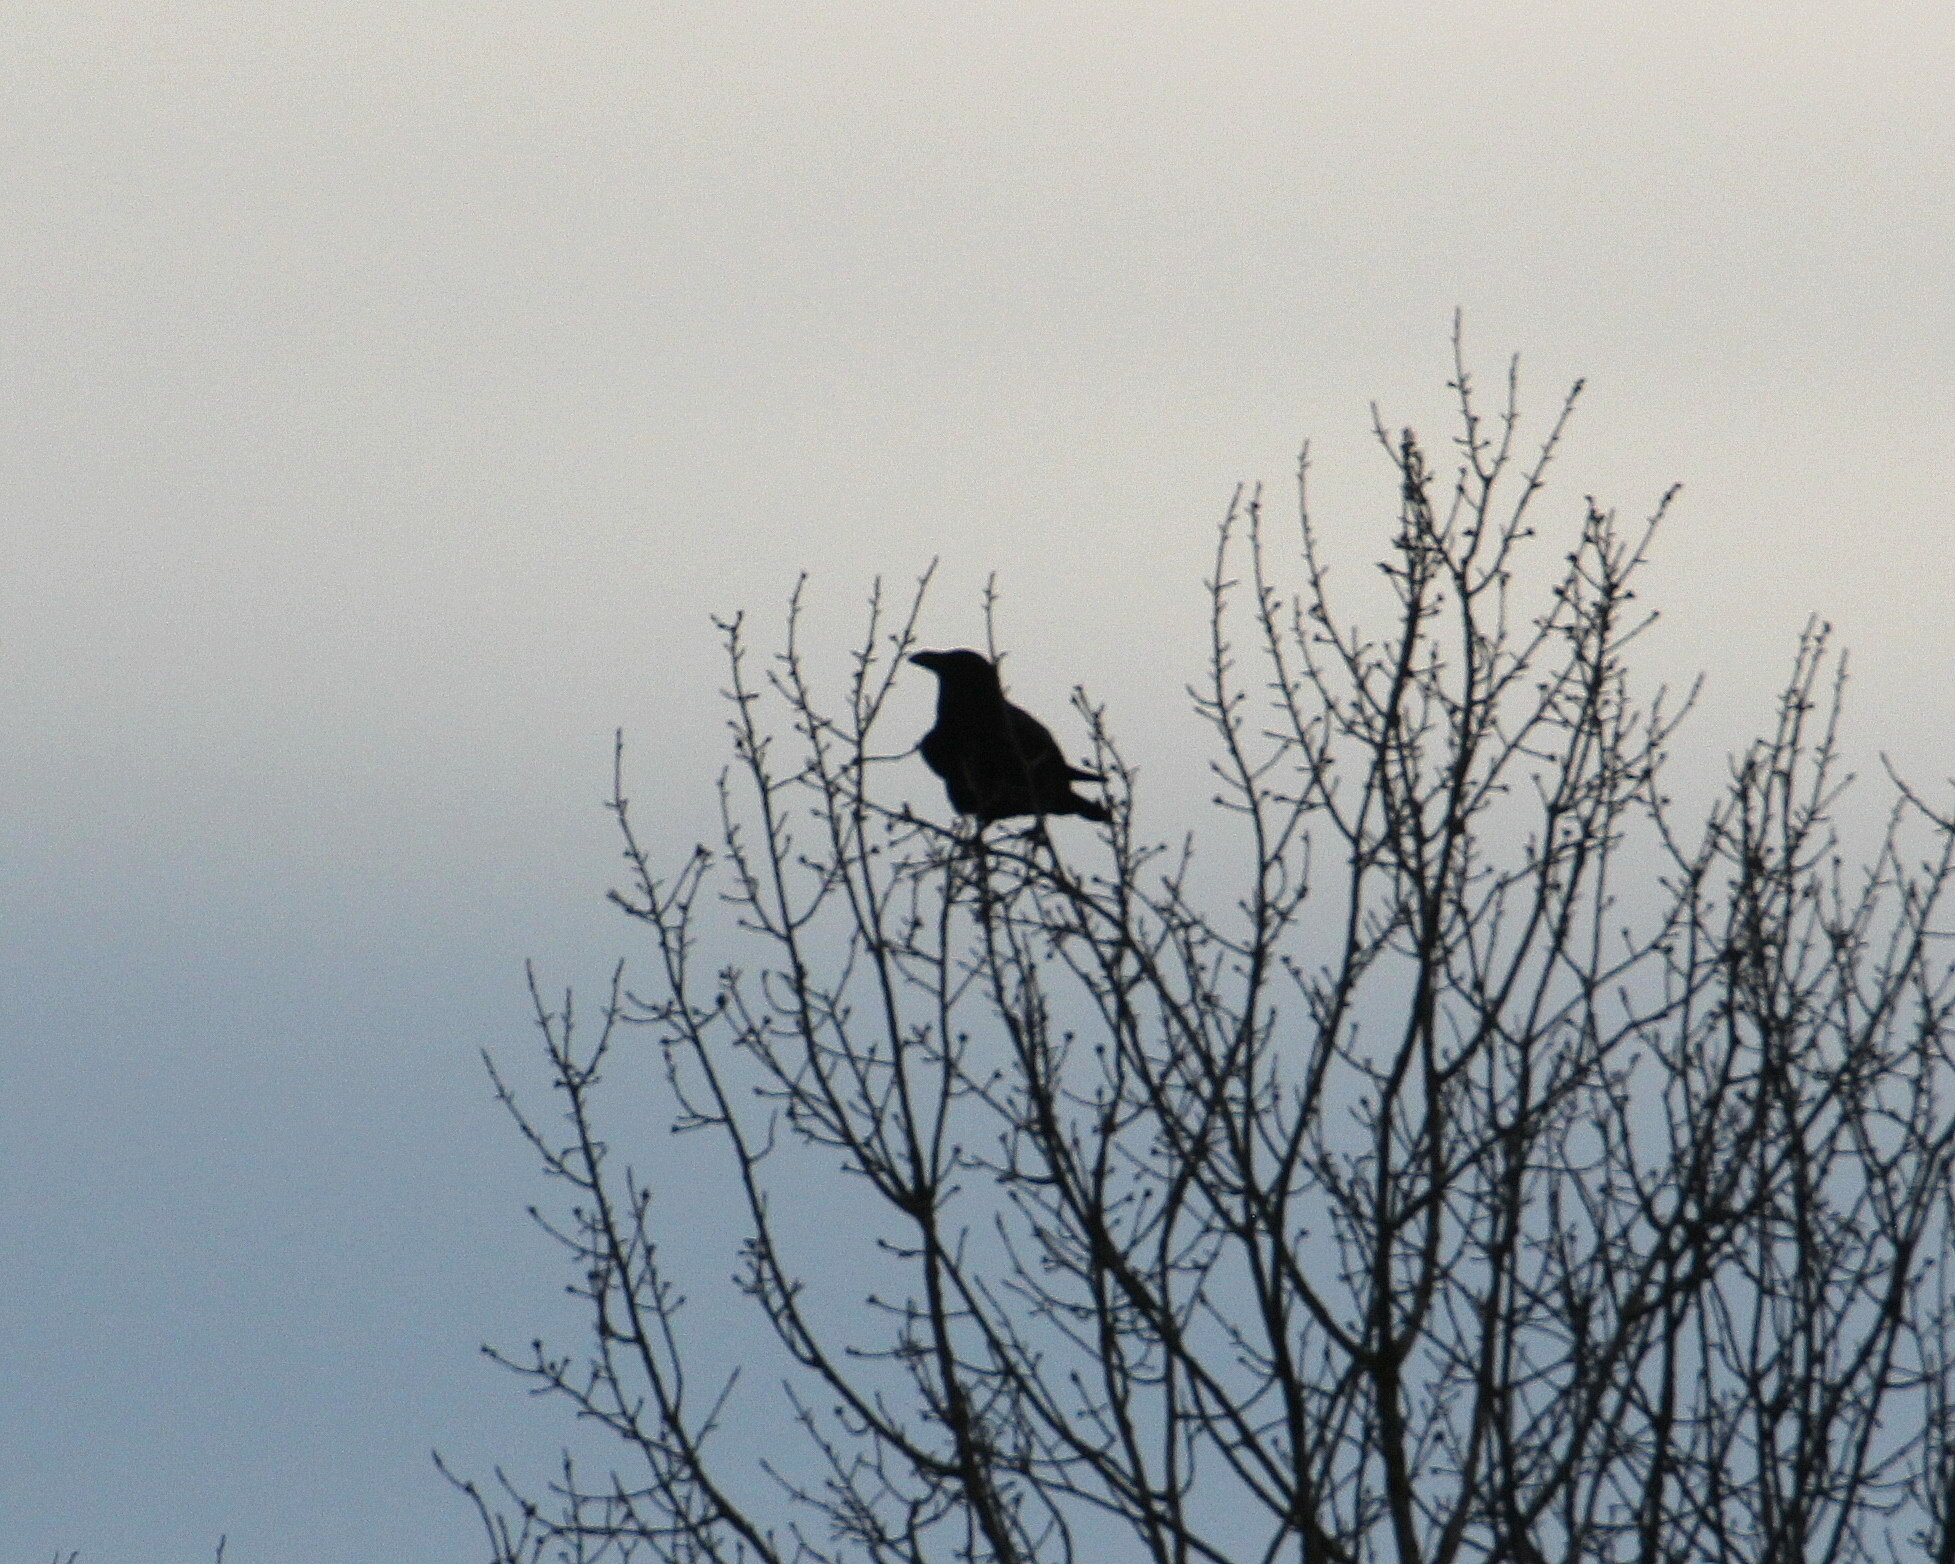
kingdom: Animalia
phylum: Chordata
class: Aves
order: Passeriformes
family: Corvidae
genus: Corvus
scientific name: Corvus corax
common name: Common raven
